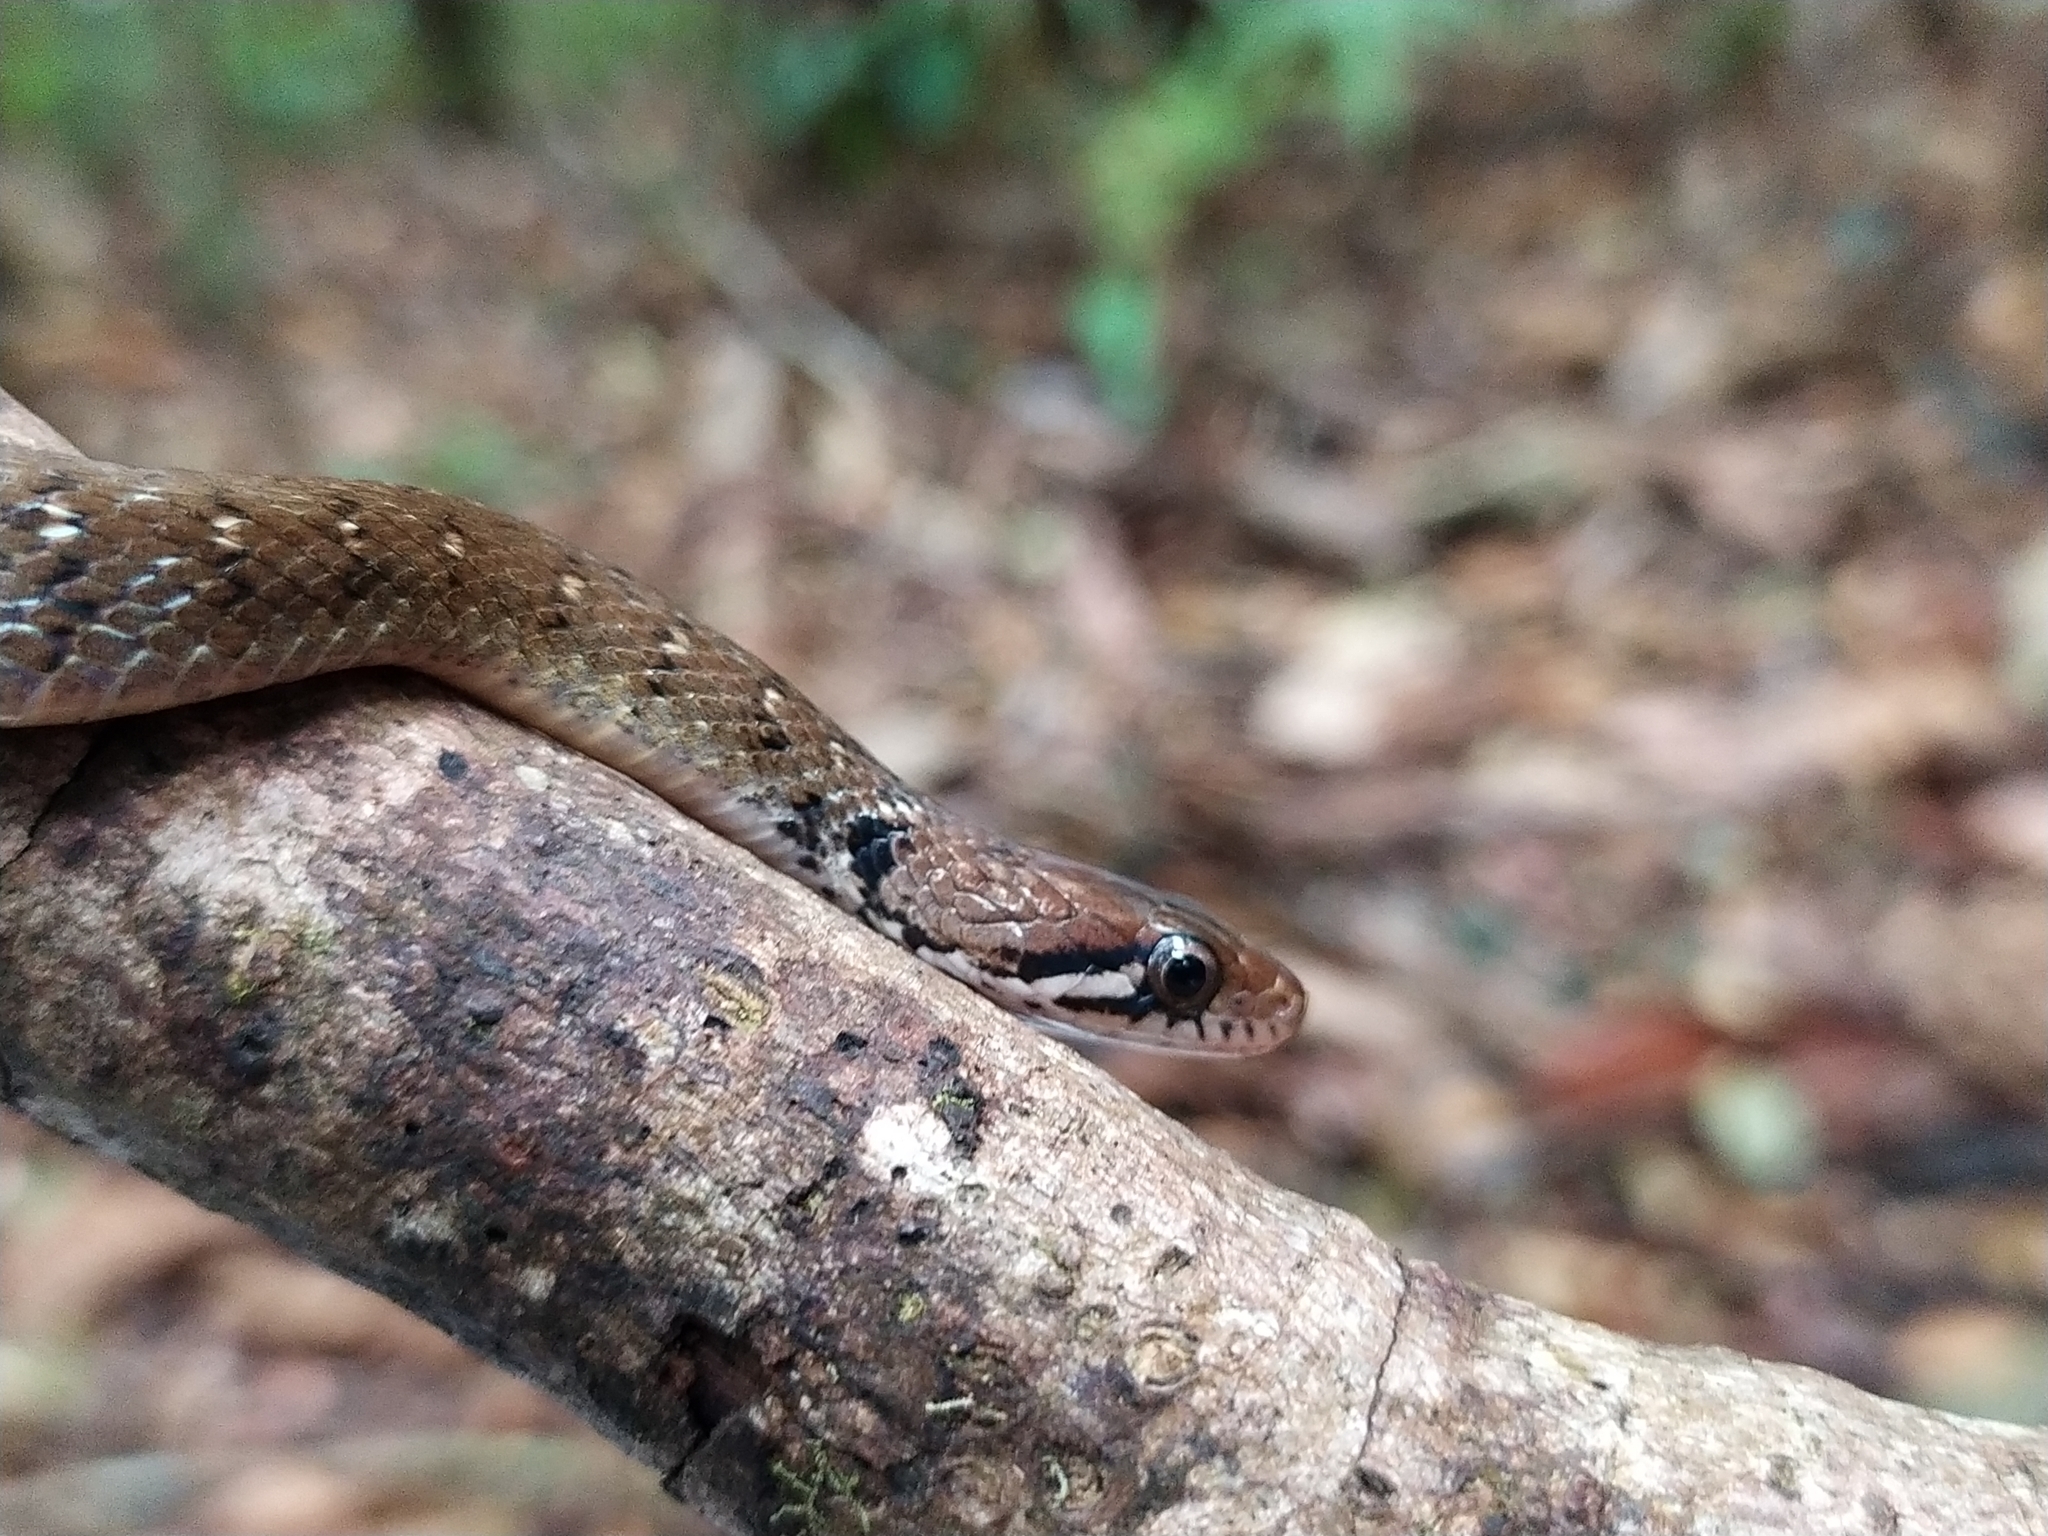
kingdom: Animalia
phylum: Chordata
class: Squamata
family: Colubridae
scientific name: Colubridae
